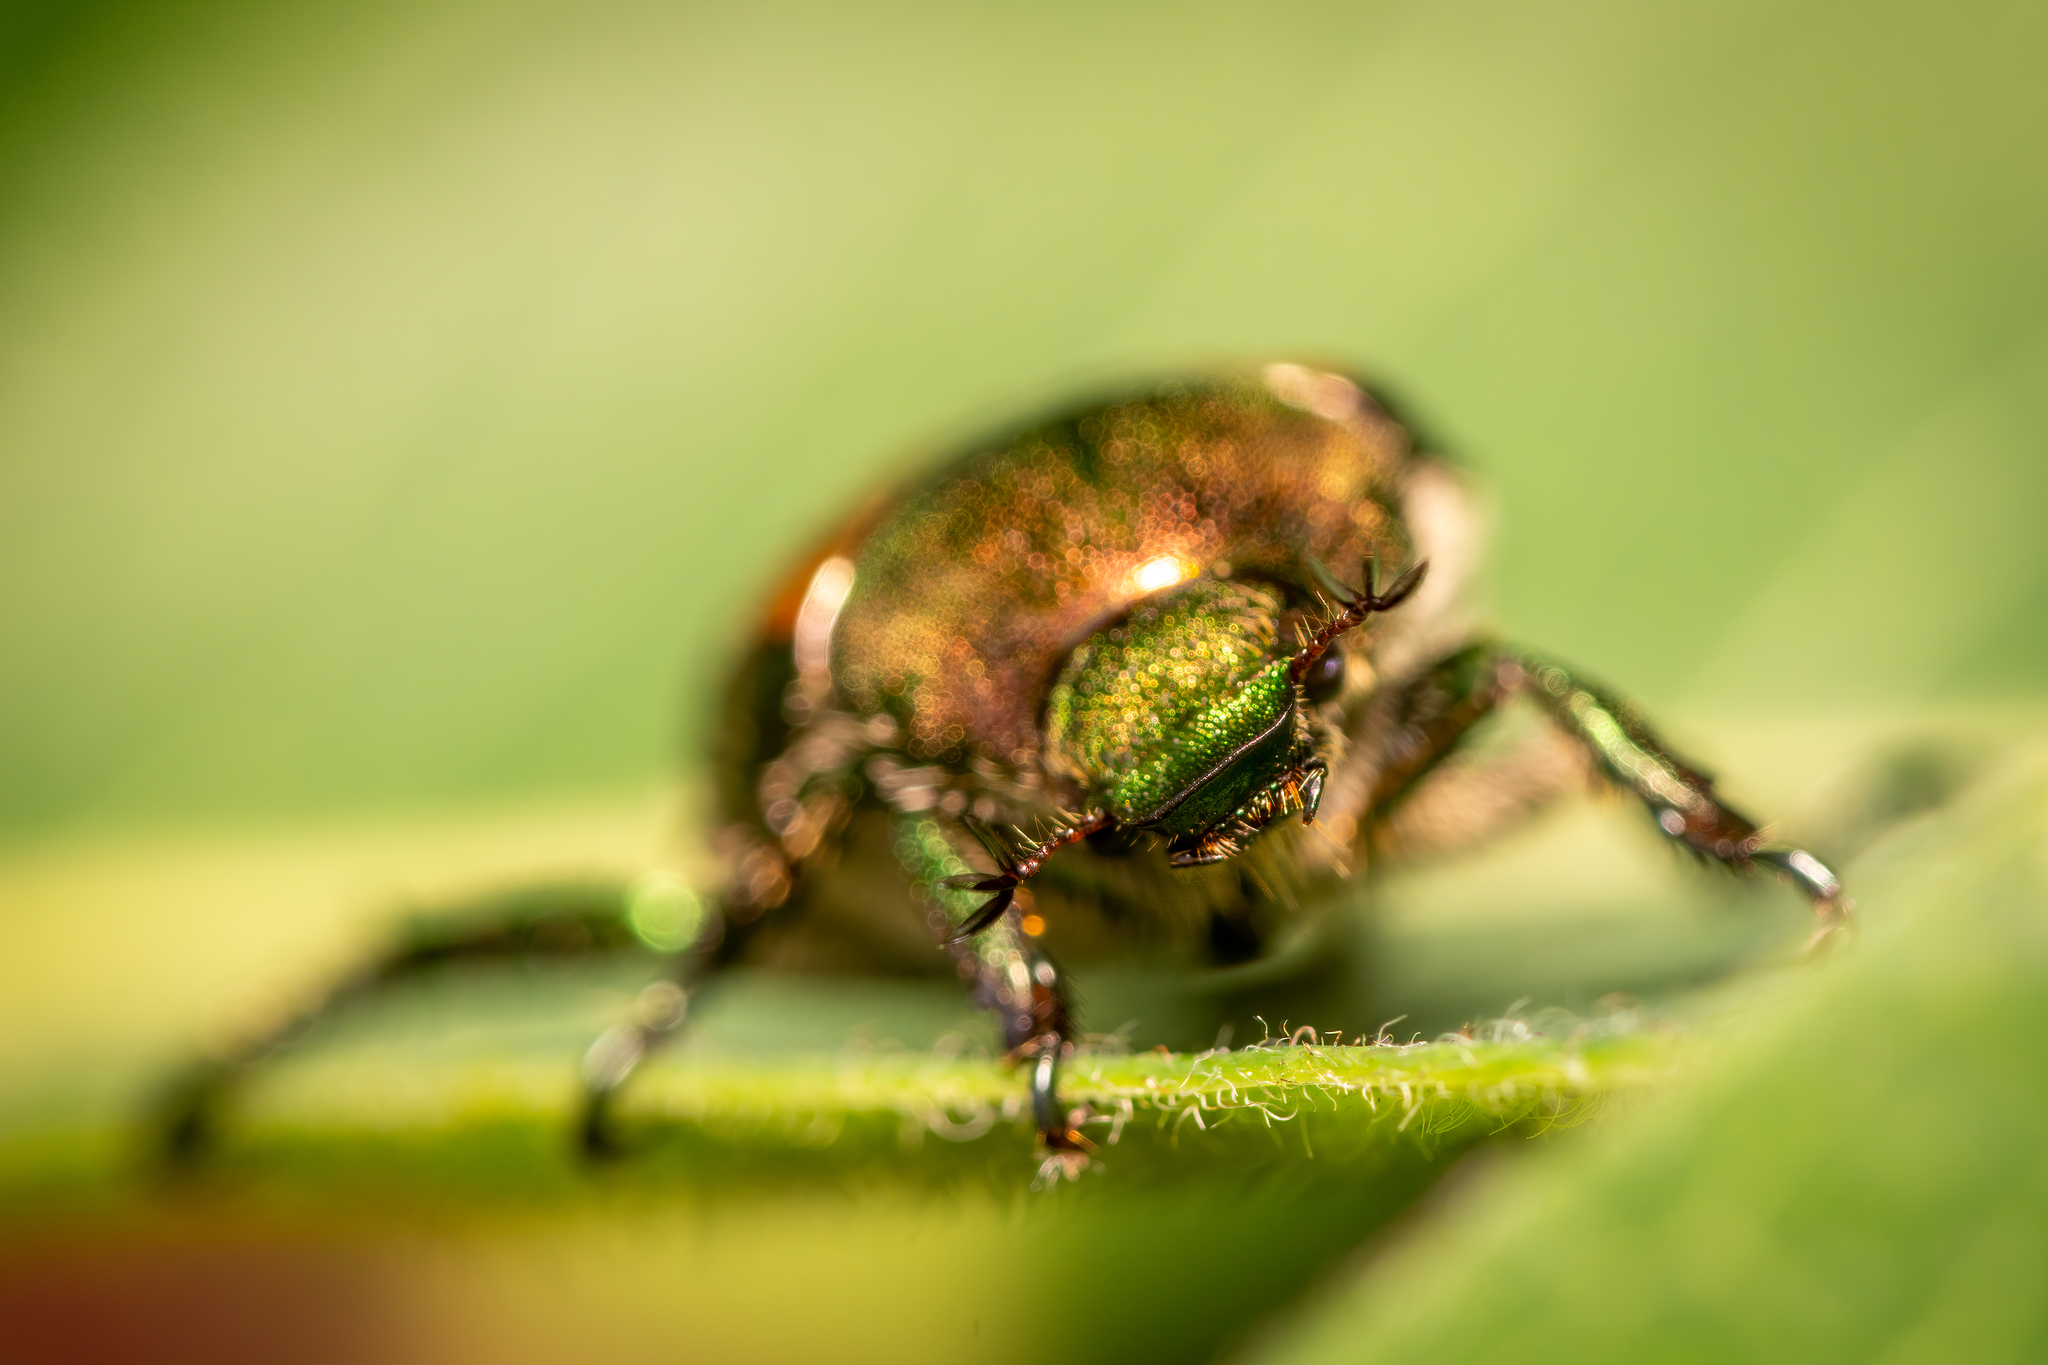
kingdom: Animalia
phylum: Arthropoda
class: Insecta
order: Coleoptera
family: Scarabaeidae
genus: Popillia
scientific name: Popillia japonica
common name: Japanese beetle
